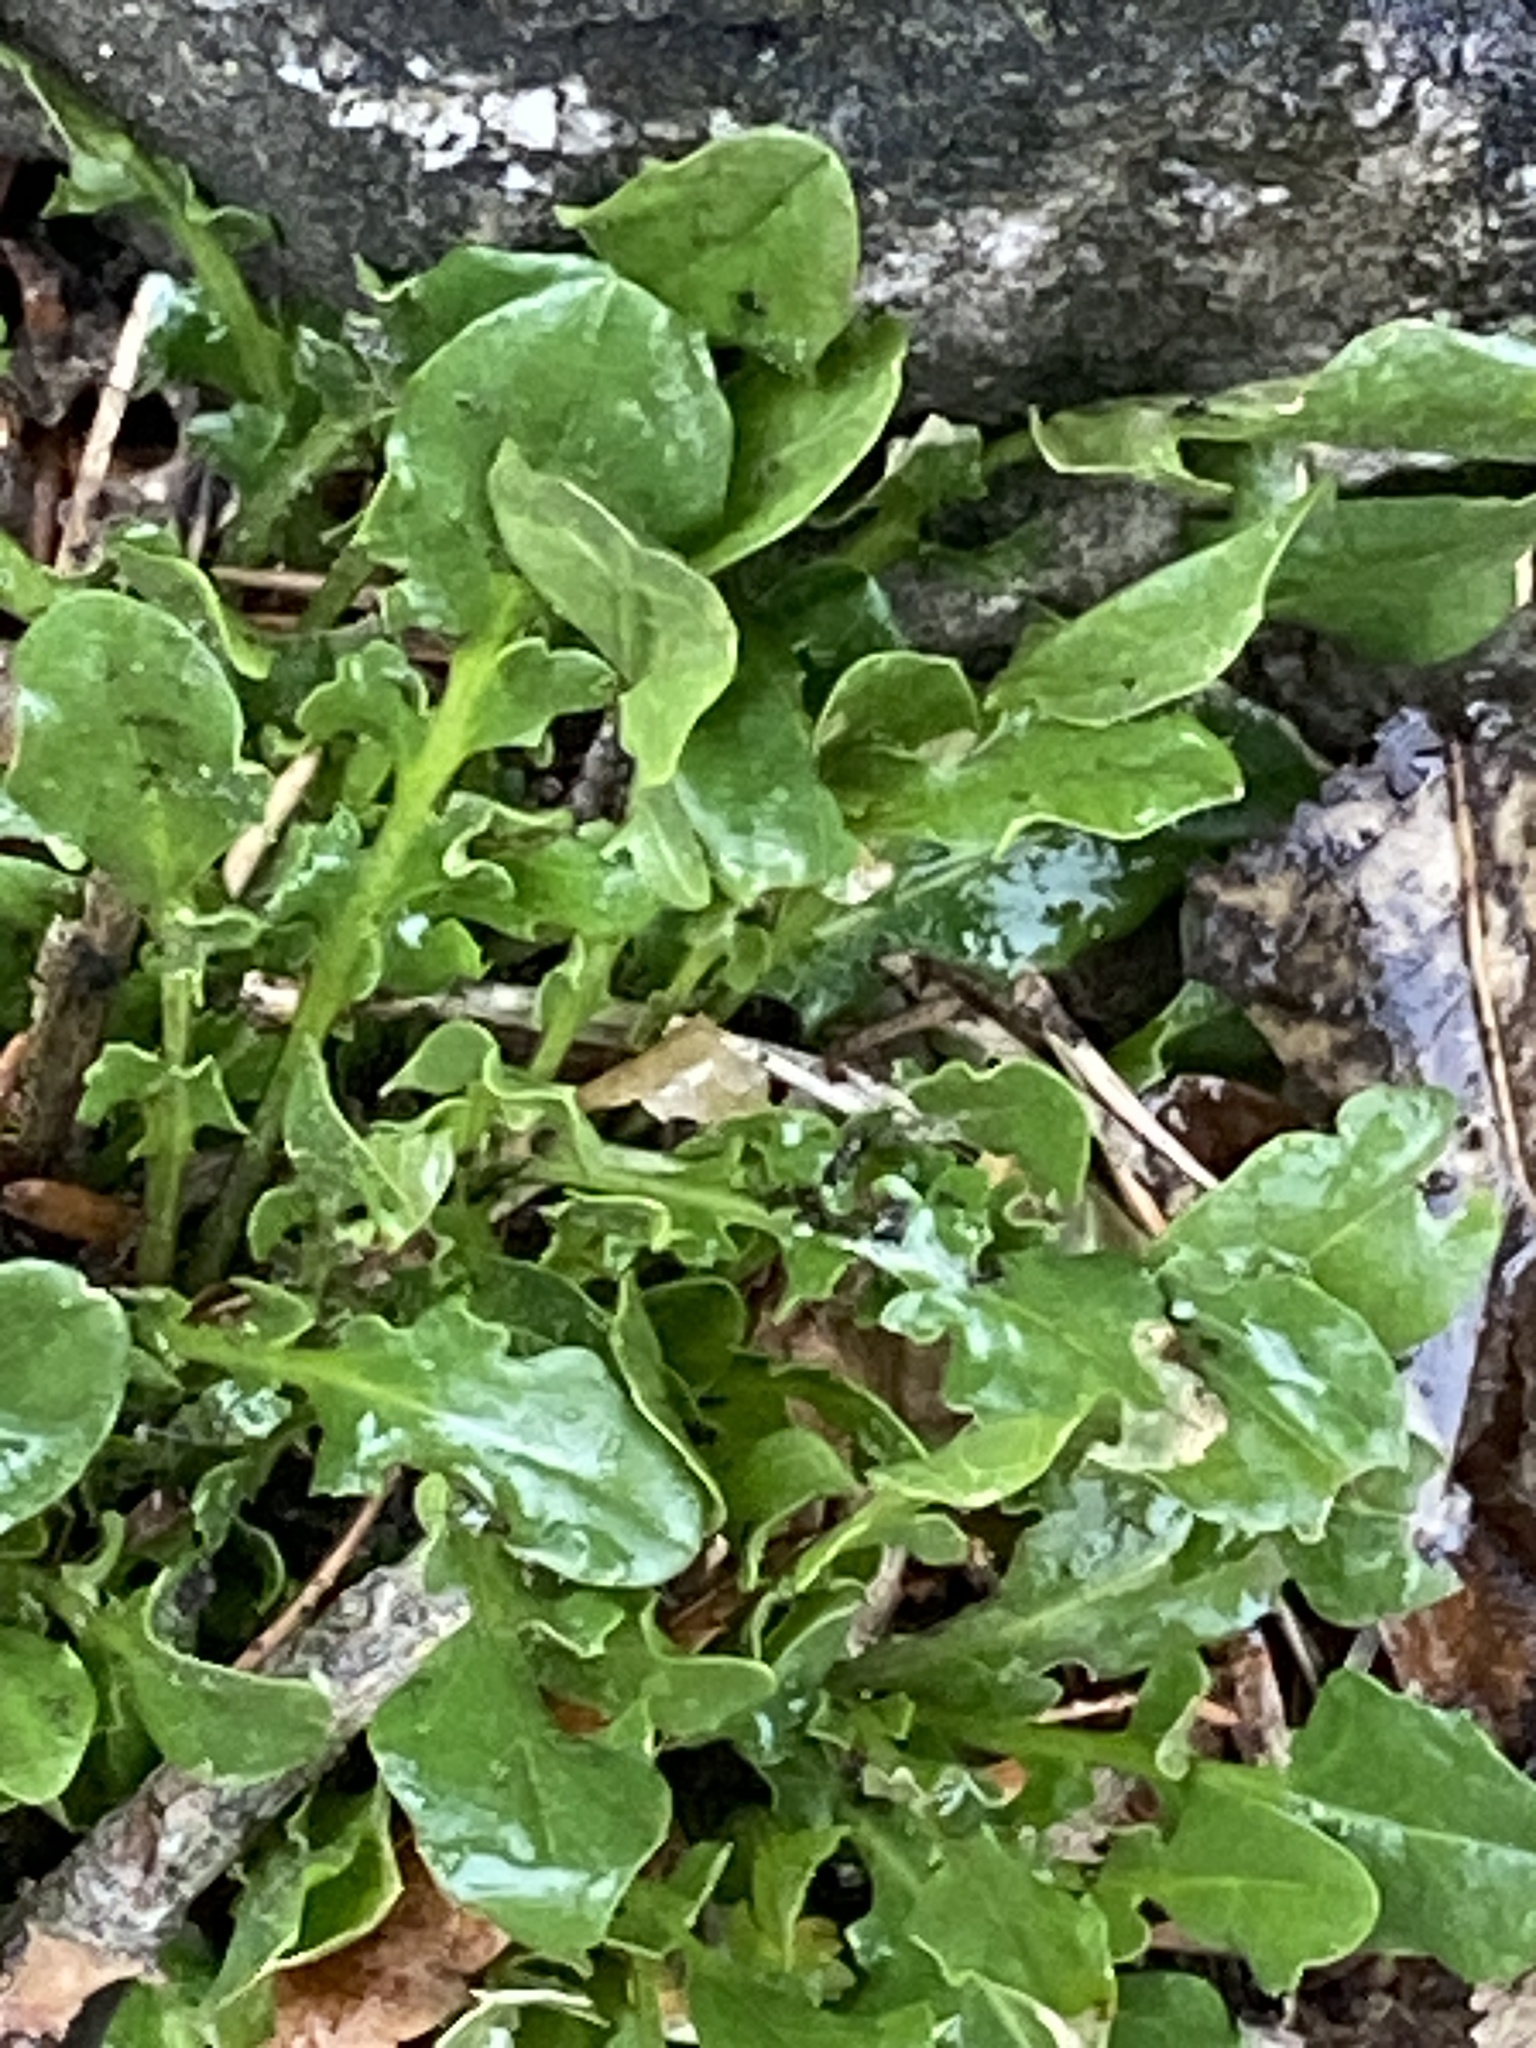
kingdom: Plantae
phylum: Tracheophyta
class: Magnoliopsida
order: Brassicales
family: Brassicaceae
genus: Barbarea
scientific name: Barbarea vulgaris
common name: Cressy-greens
